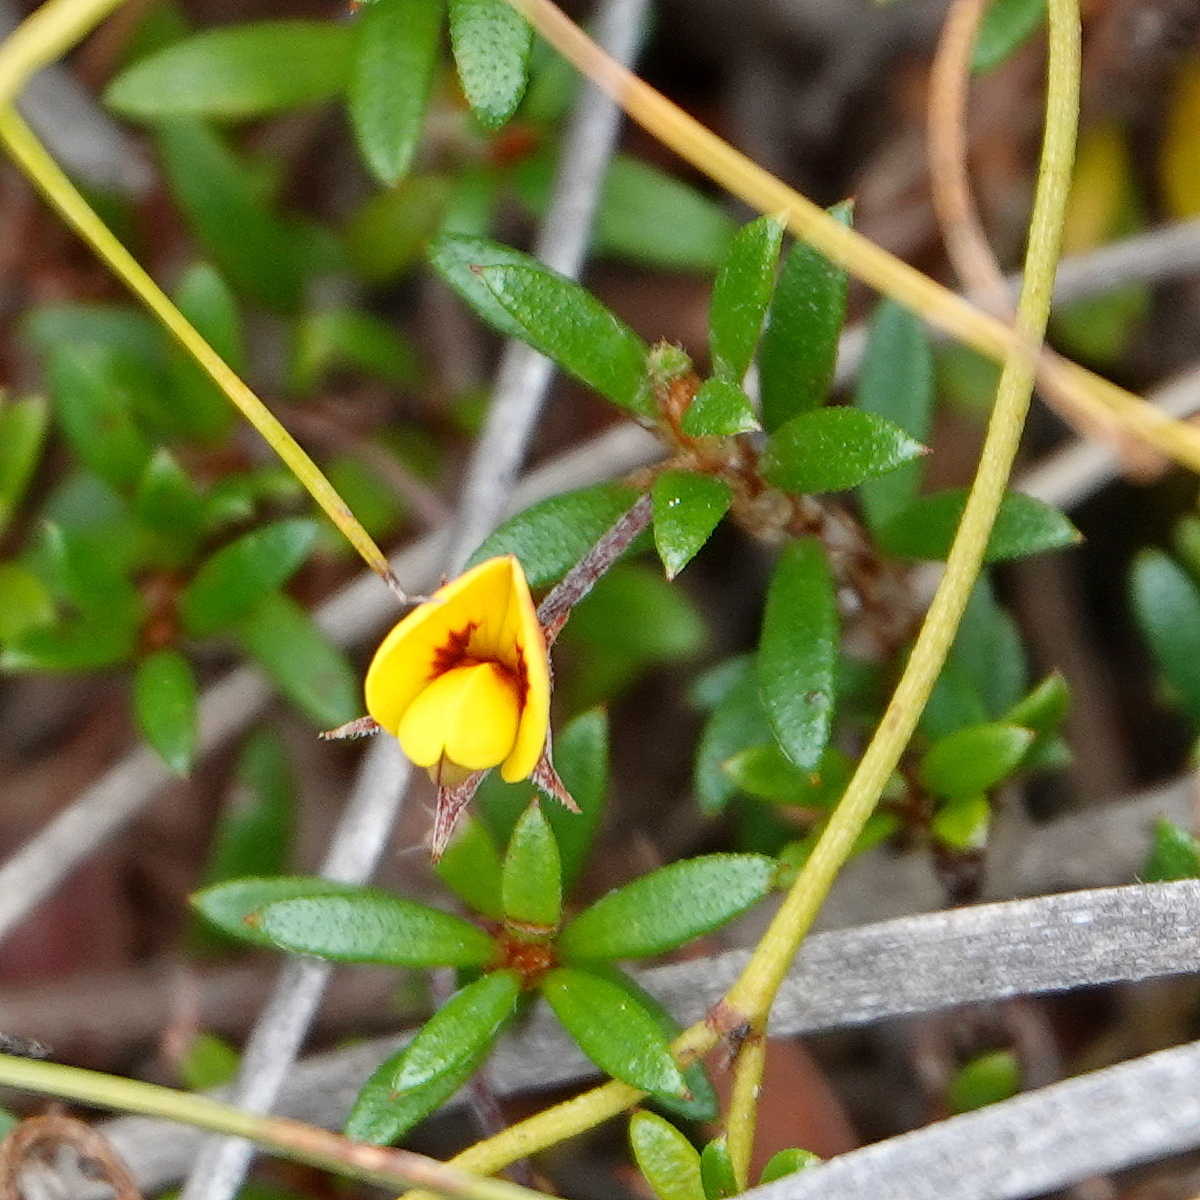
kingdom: Plantae
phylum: Tracheophyta
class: Magnoliopsida
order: Fabales
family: Fabaceae
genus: Pultenaea
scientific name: Pultenaea pedunculata
